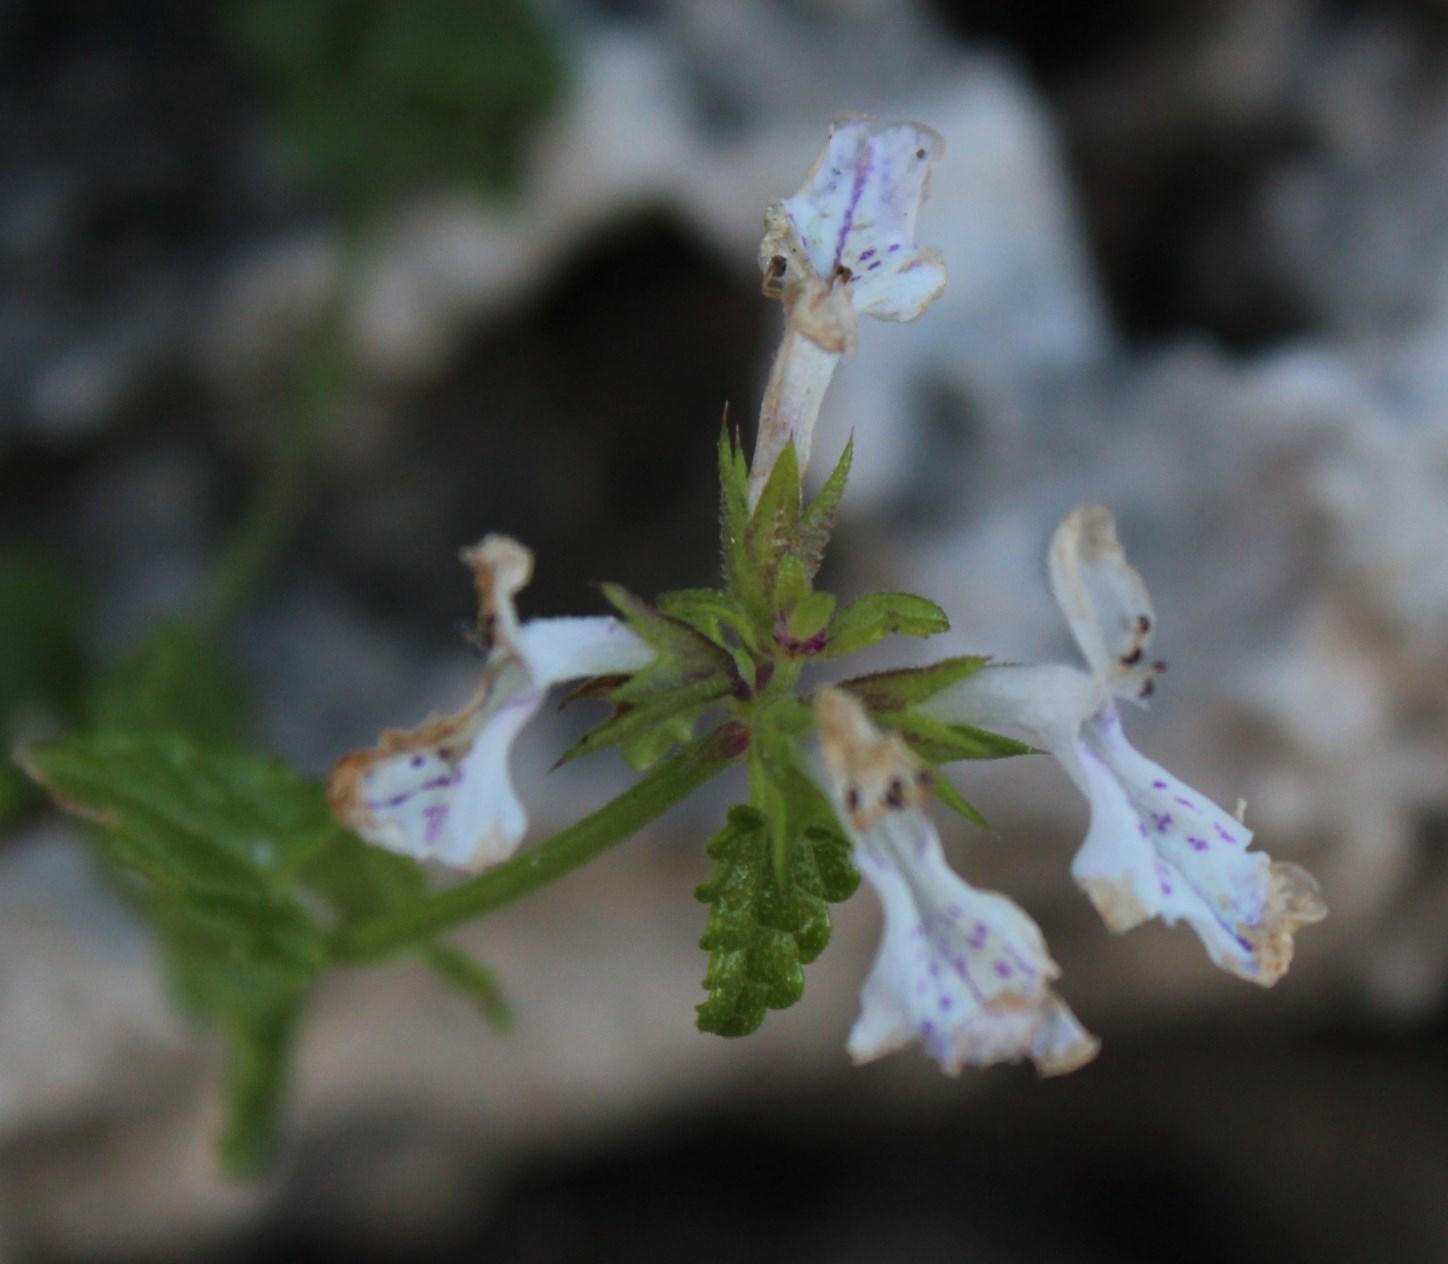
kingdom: Plantae
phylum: Tracheophyta
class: Magnoliopsida
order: Lamiales
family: Lamiaceae
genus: Stachys
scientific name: Stachys aethiopica
